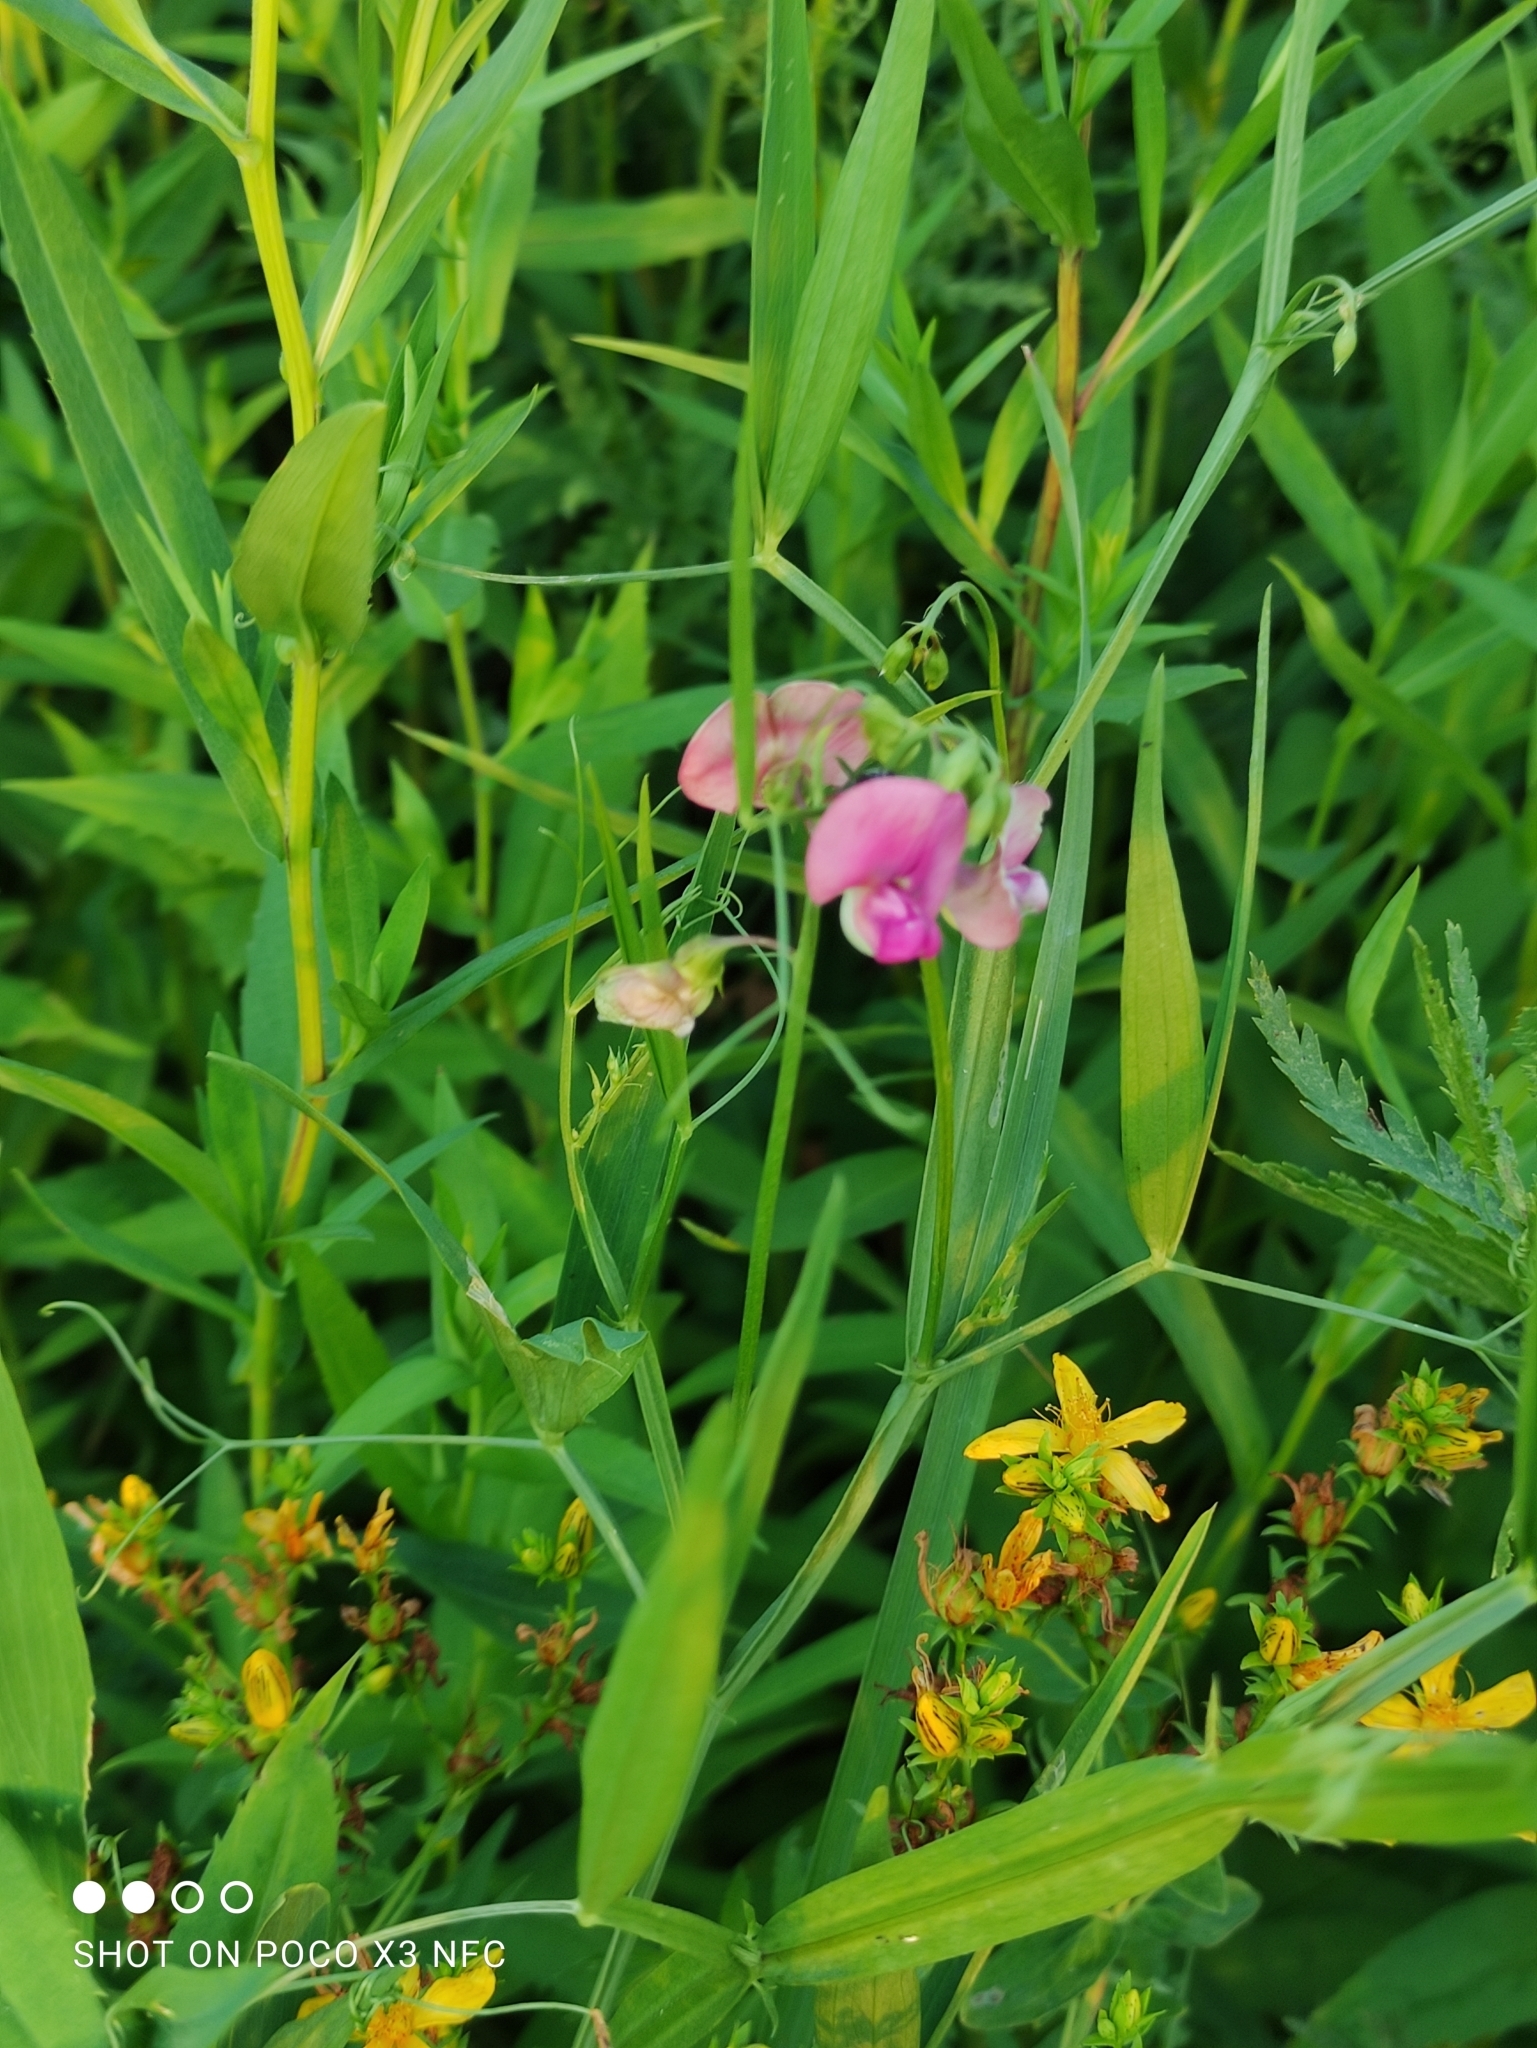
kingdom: Plantae
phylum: Tracheophyta
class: Magnoliopsida
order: Fabales
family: Fabaceae
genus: Lathyrus
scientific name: Lathyrus sylvestris
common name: Flat pea
